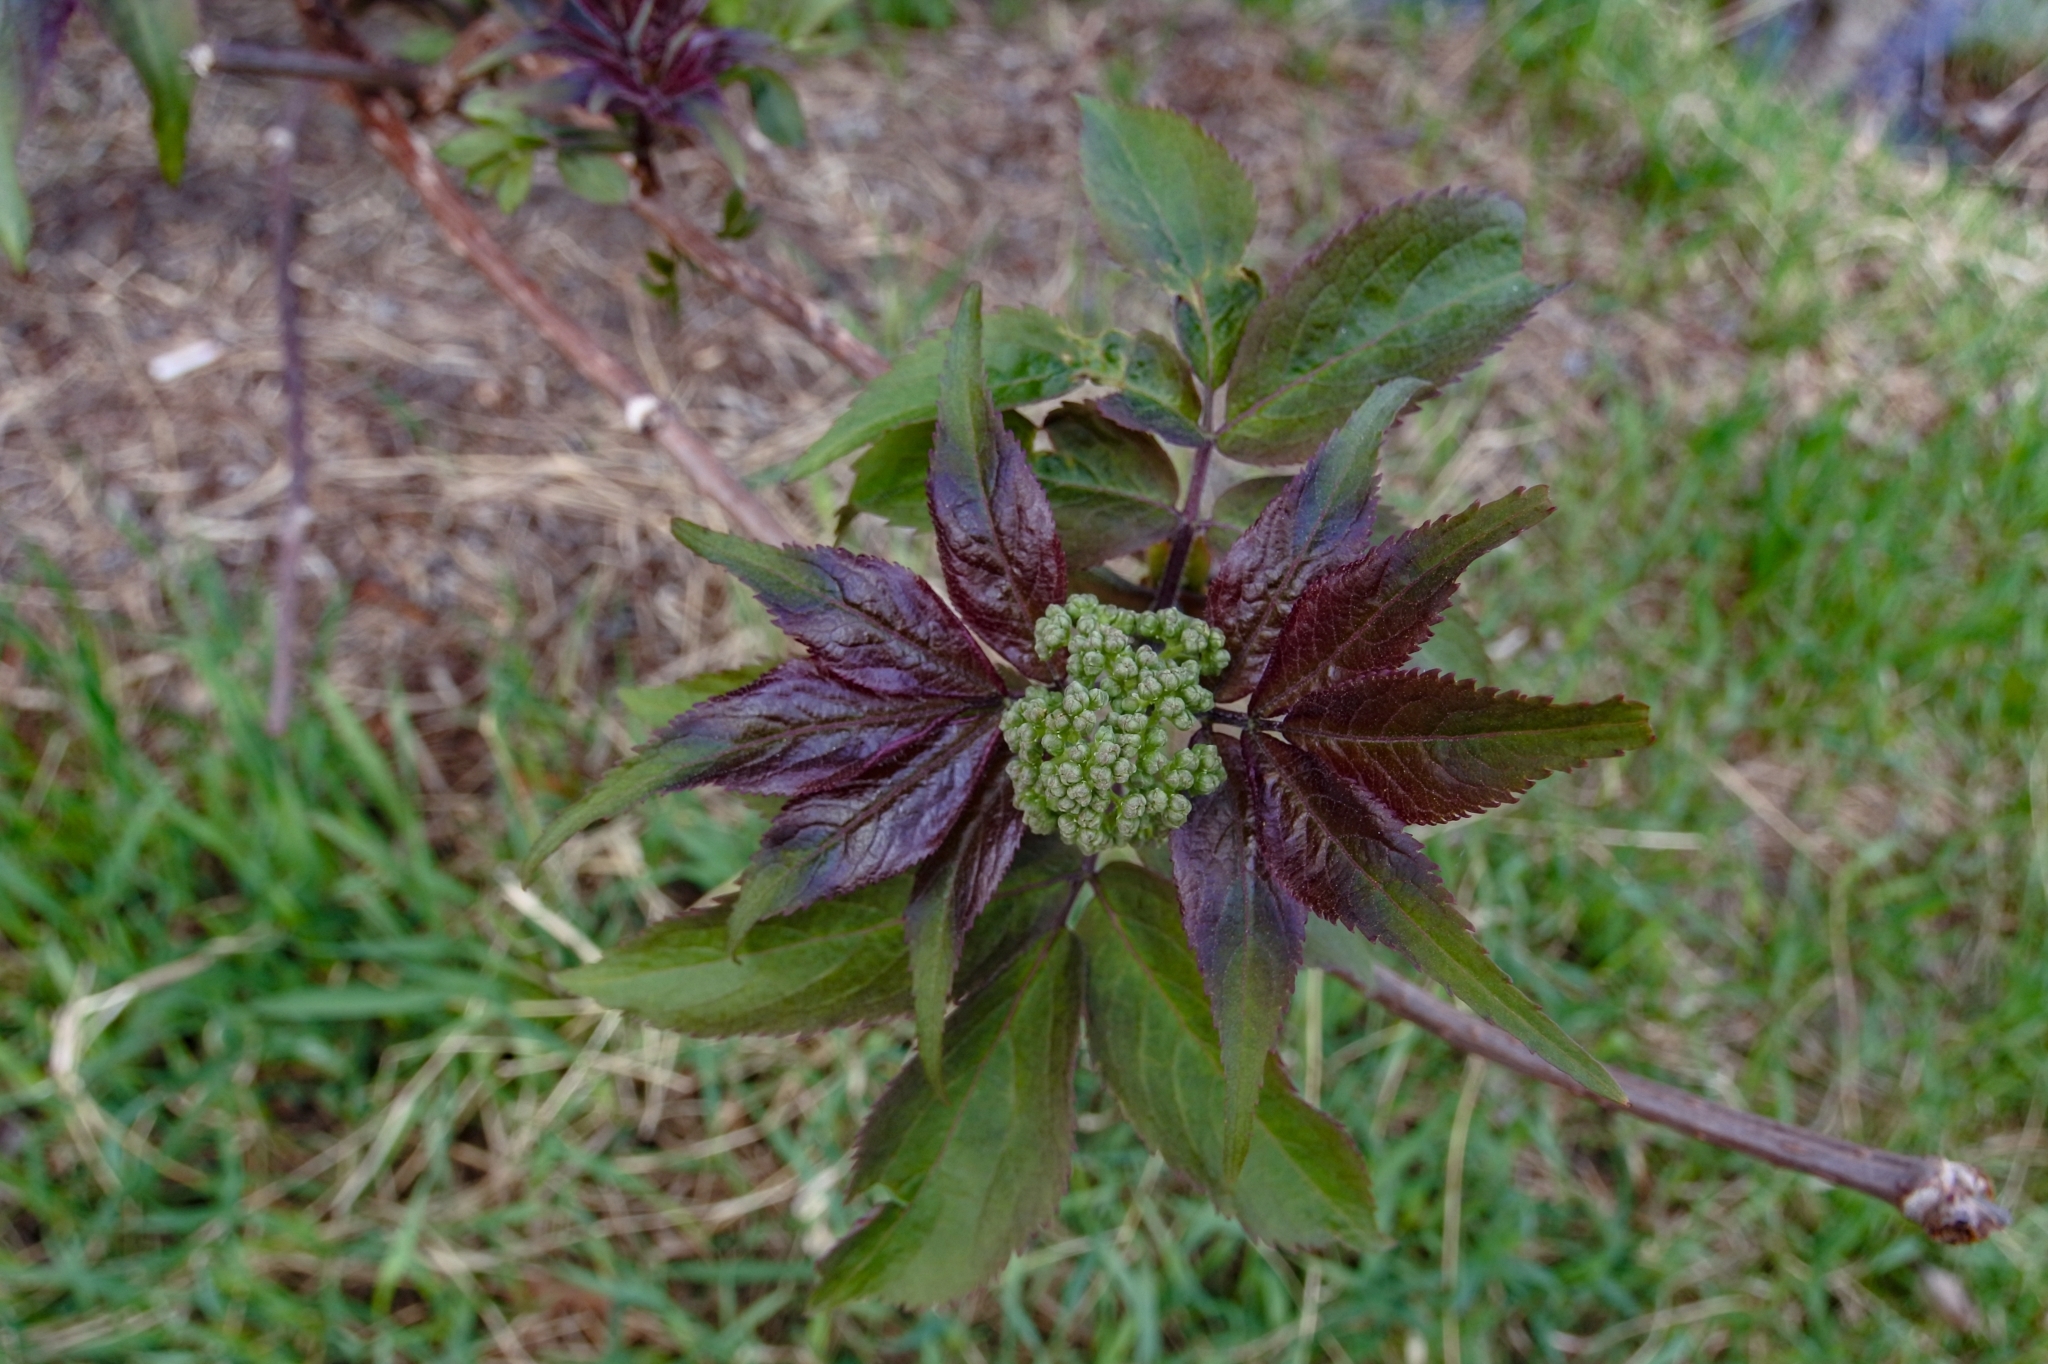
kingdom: Plantae
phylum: Tracheophyta
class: Magnoliopsida
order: Dipsacales
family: Viburnaceae
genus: Sambucus
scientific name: Sambucus racemosa
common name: Red-berried elder
